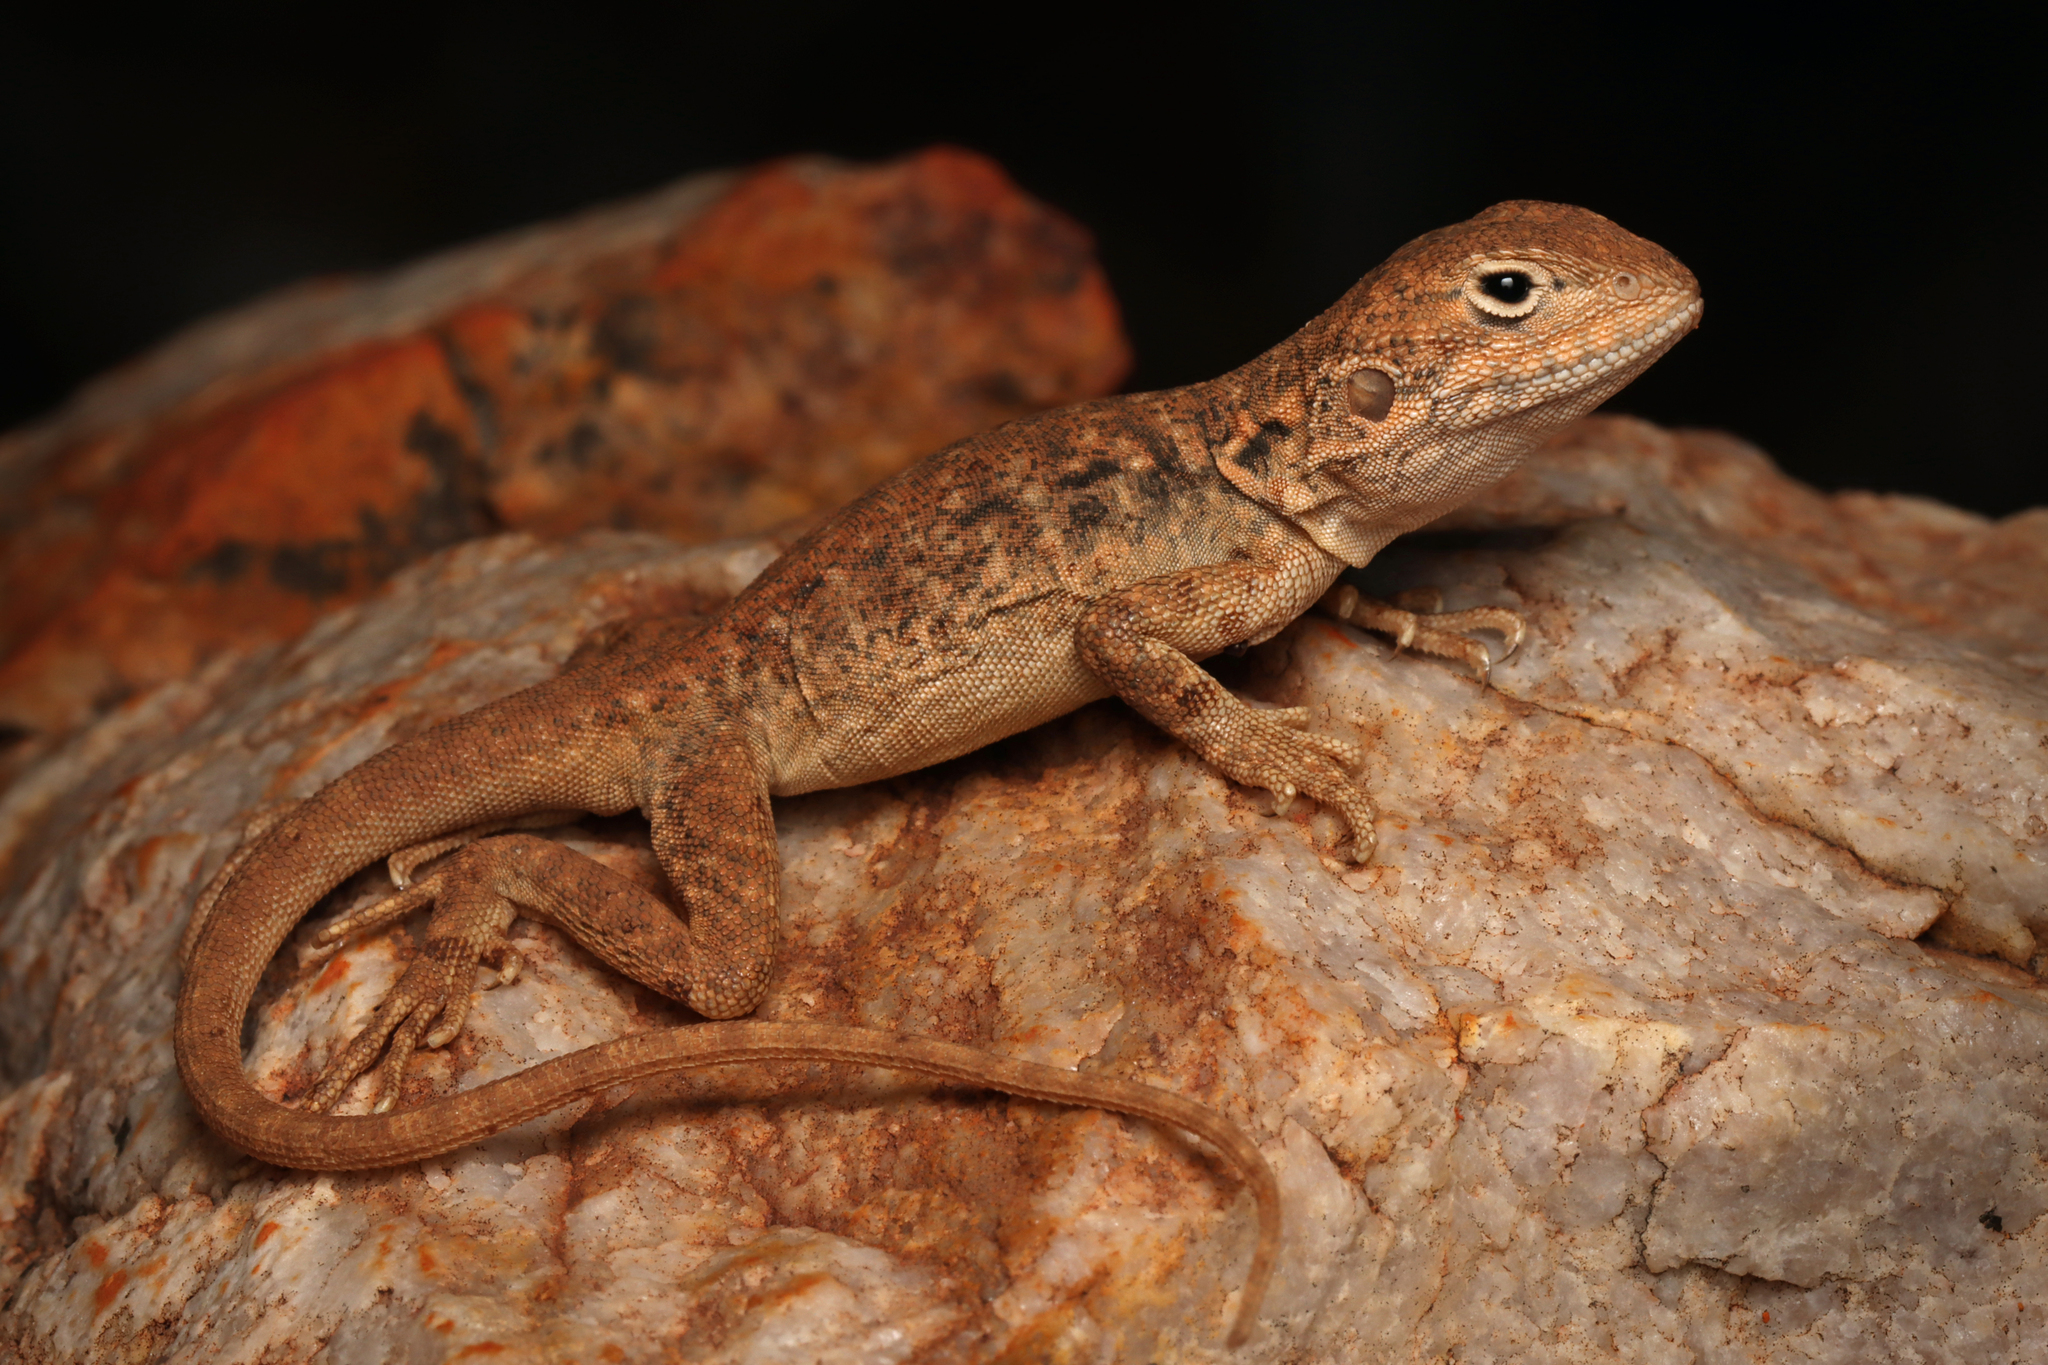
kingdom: Animalia
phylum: Chordata
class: Squamata
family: Agamidae
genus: Ctenophorus
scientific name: Ctenophorus fionni
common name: Peninsula crevis-dragon
